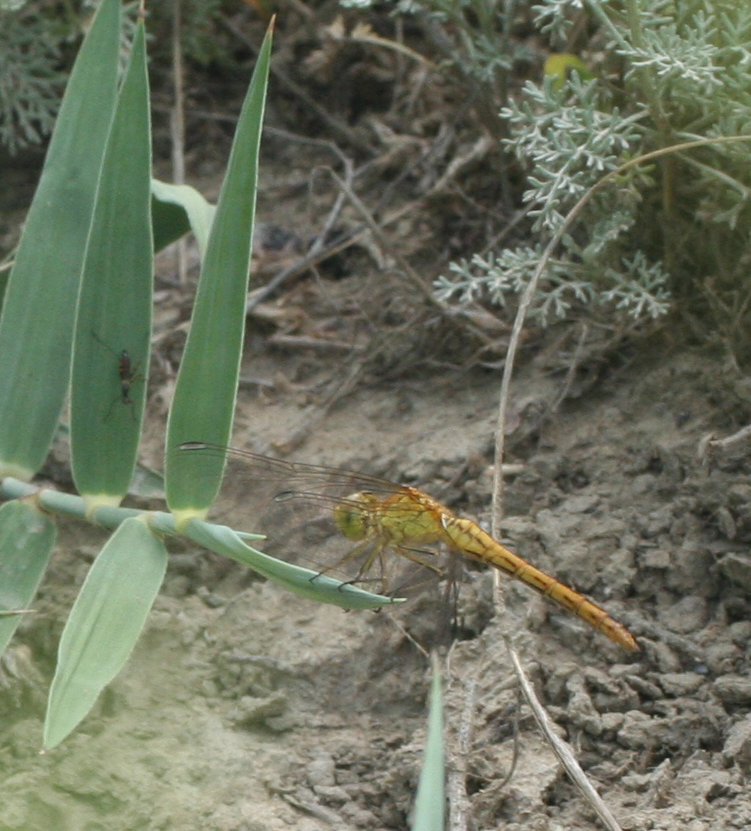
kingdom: Animalia
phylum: Arthropoda
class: Insecta
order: Odonata
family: Libellulidae
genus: Sympetrum
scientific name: Sympetrum meridionale
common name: Southern darter
